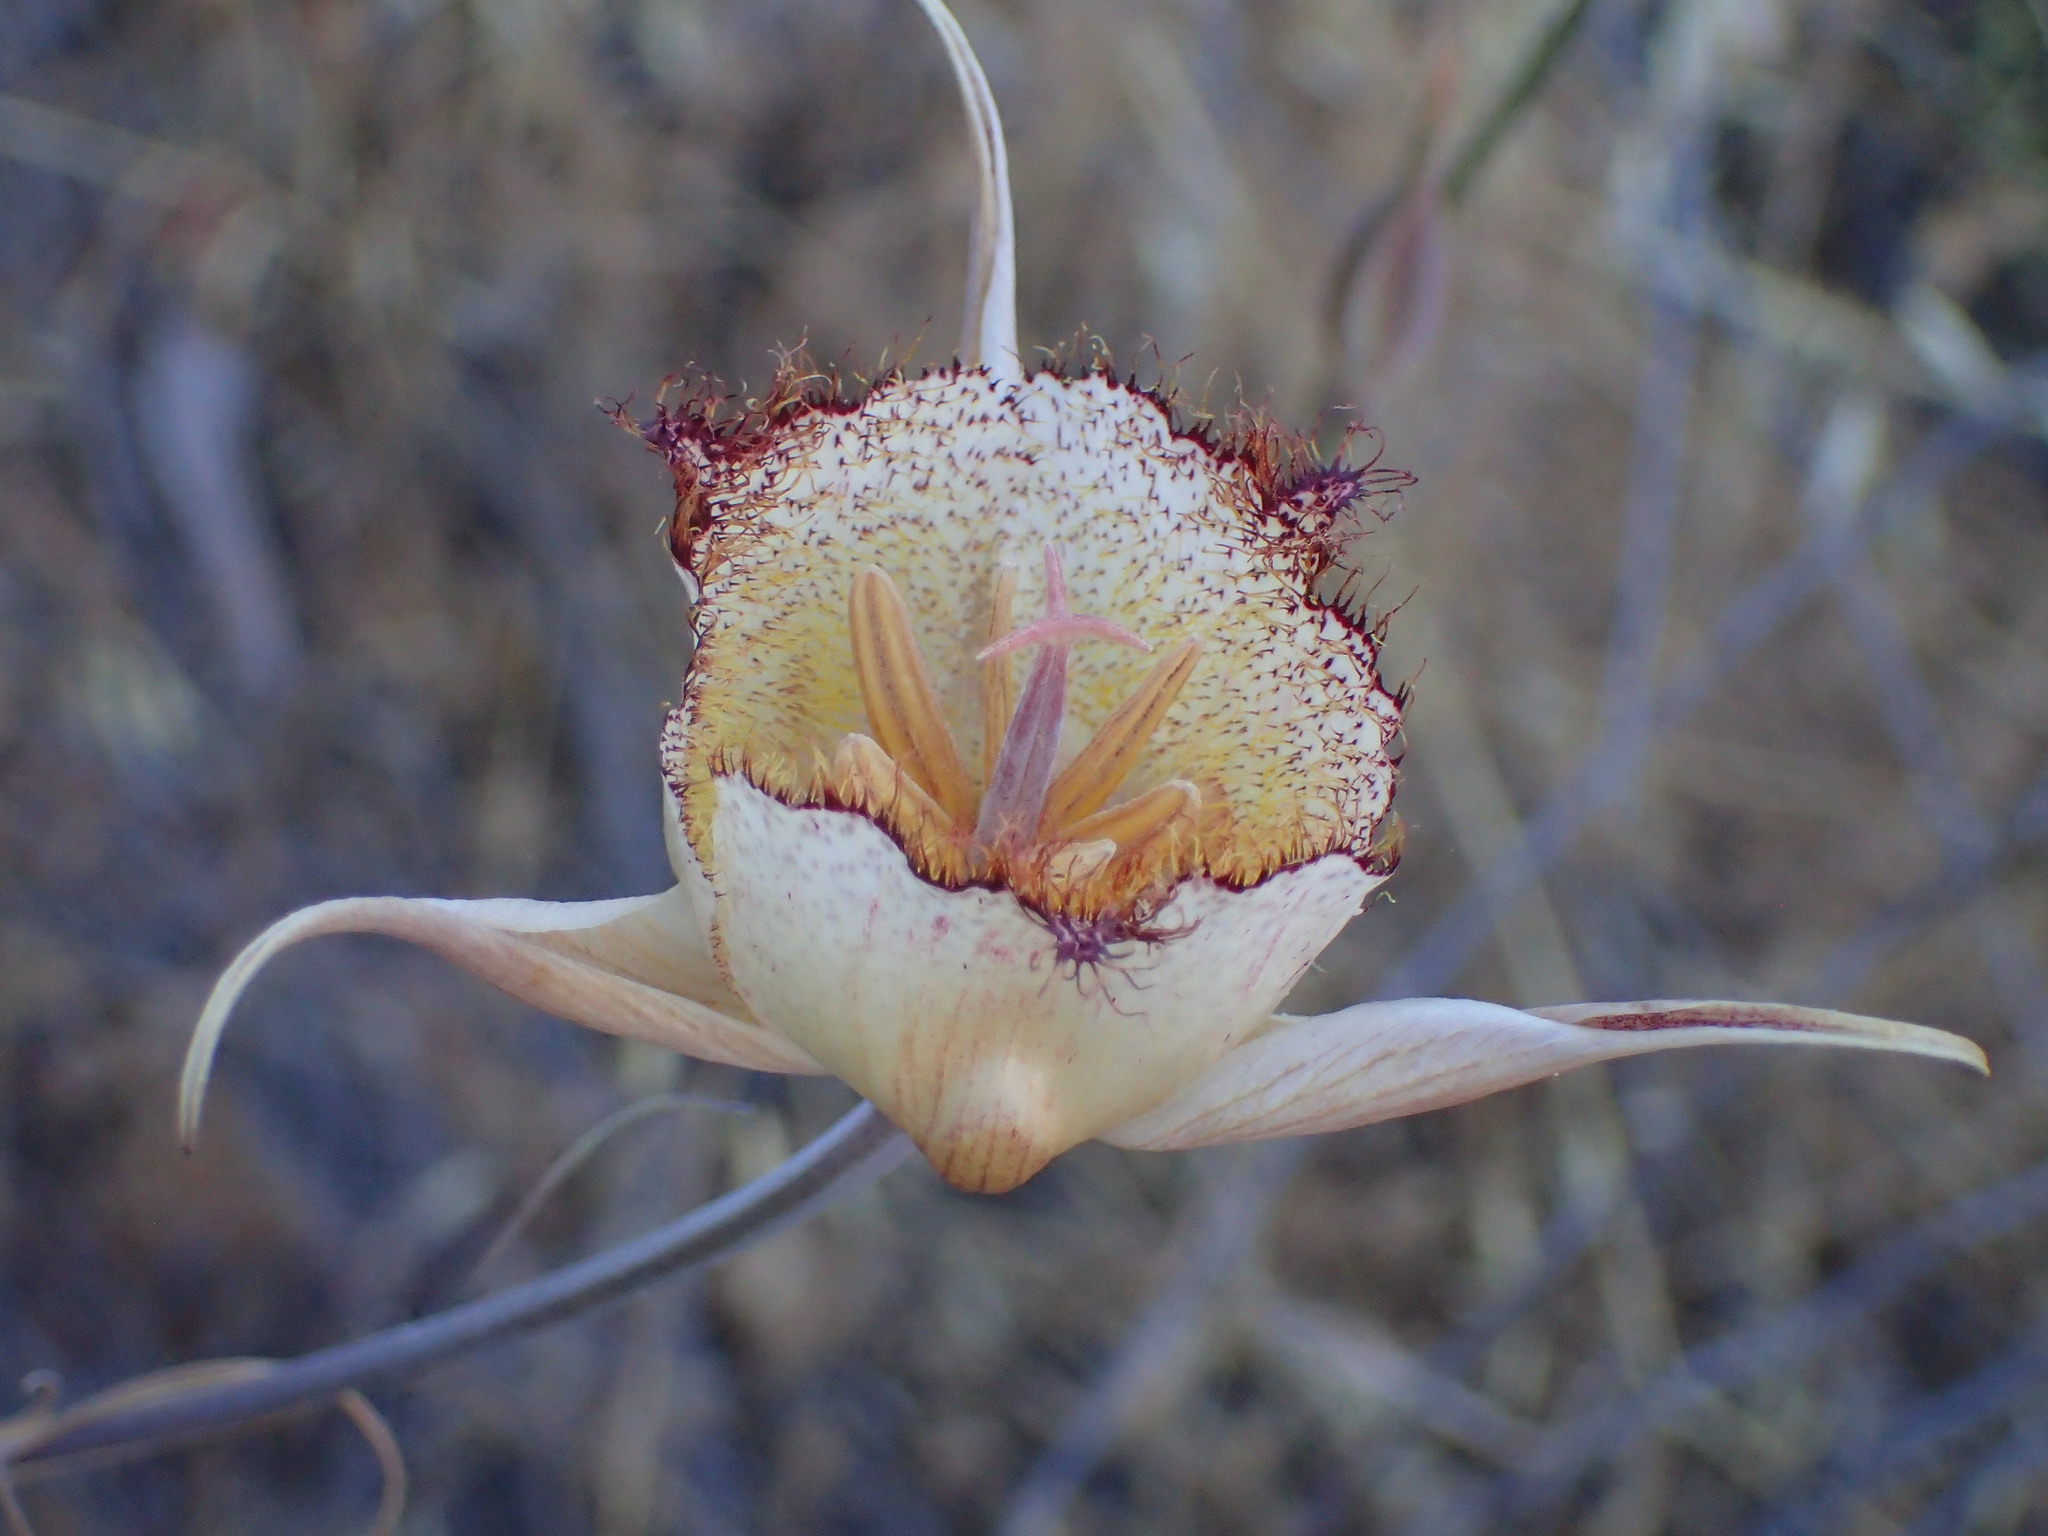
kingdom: Plantae
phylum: Tracheophyta
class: Liliopsida
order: Liliales
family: Liliaceae
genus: Calochortus
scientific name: Calochortus fimbriatus
